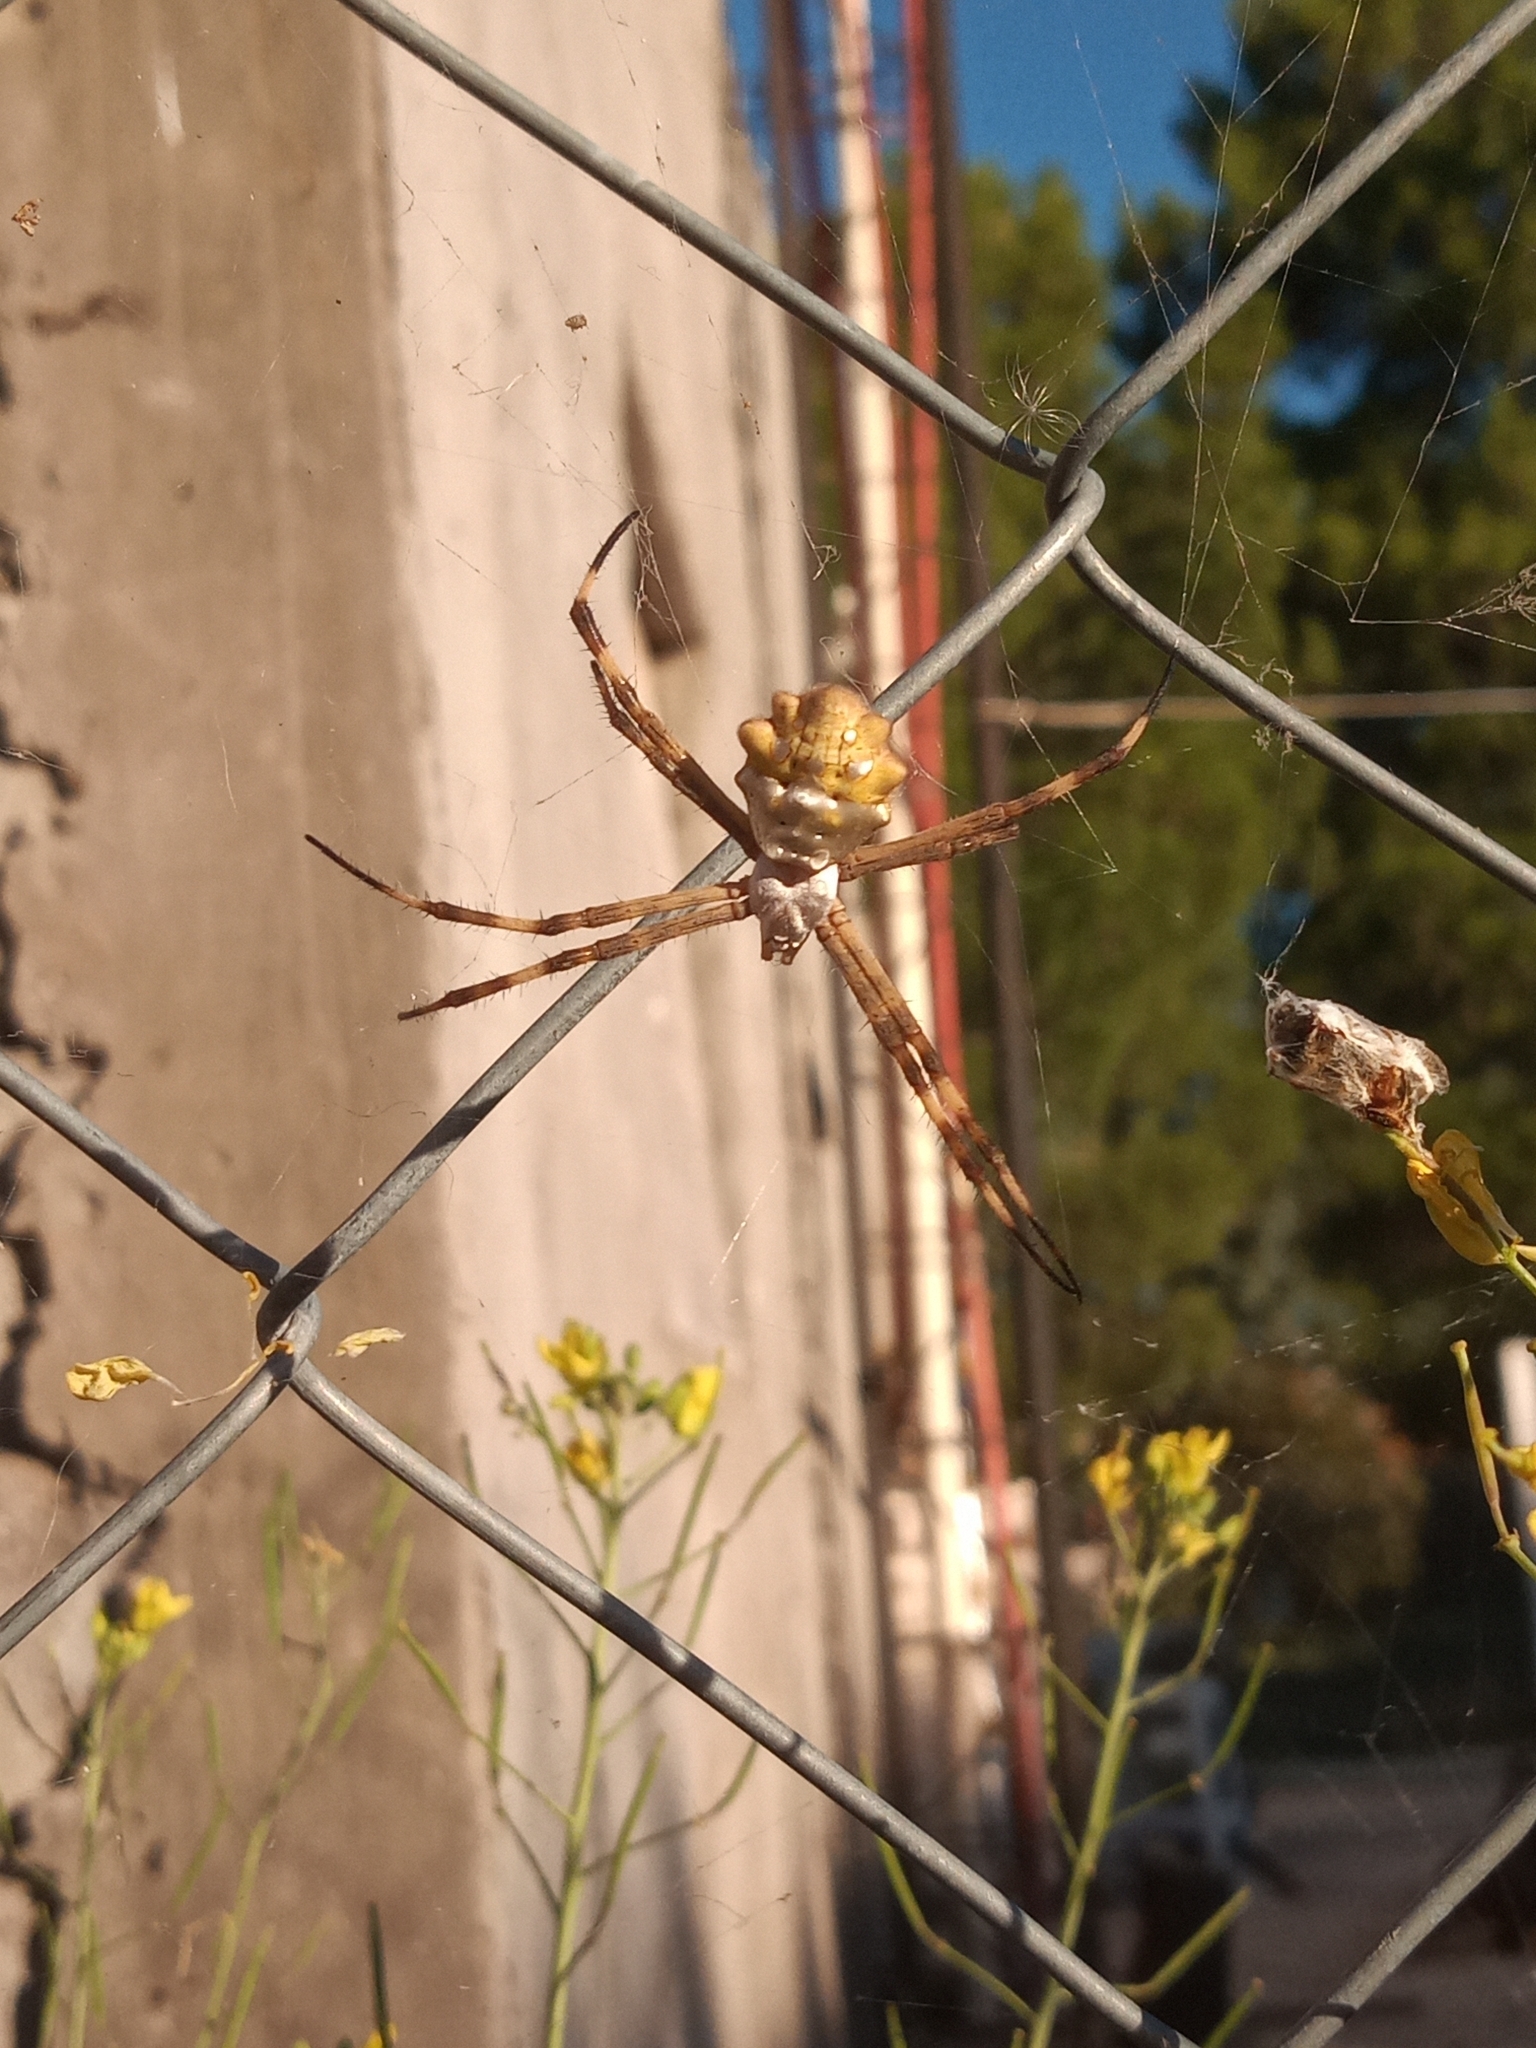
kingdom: Animalia
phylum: Arthropoda
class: Arachnida
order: Araneae
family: Araneidae
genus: Argiope
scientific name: Argiope argentata
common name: Orb weavers
